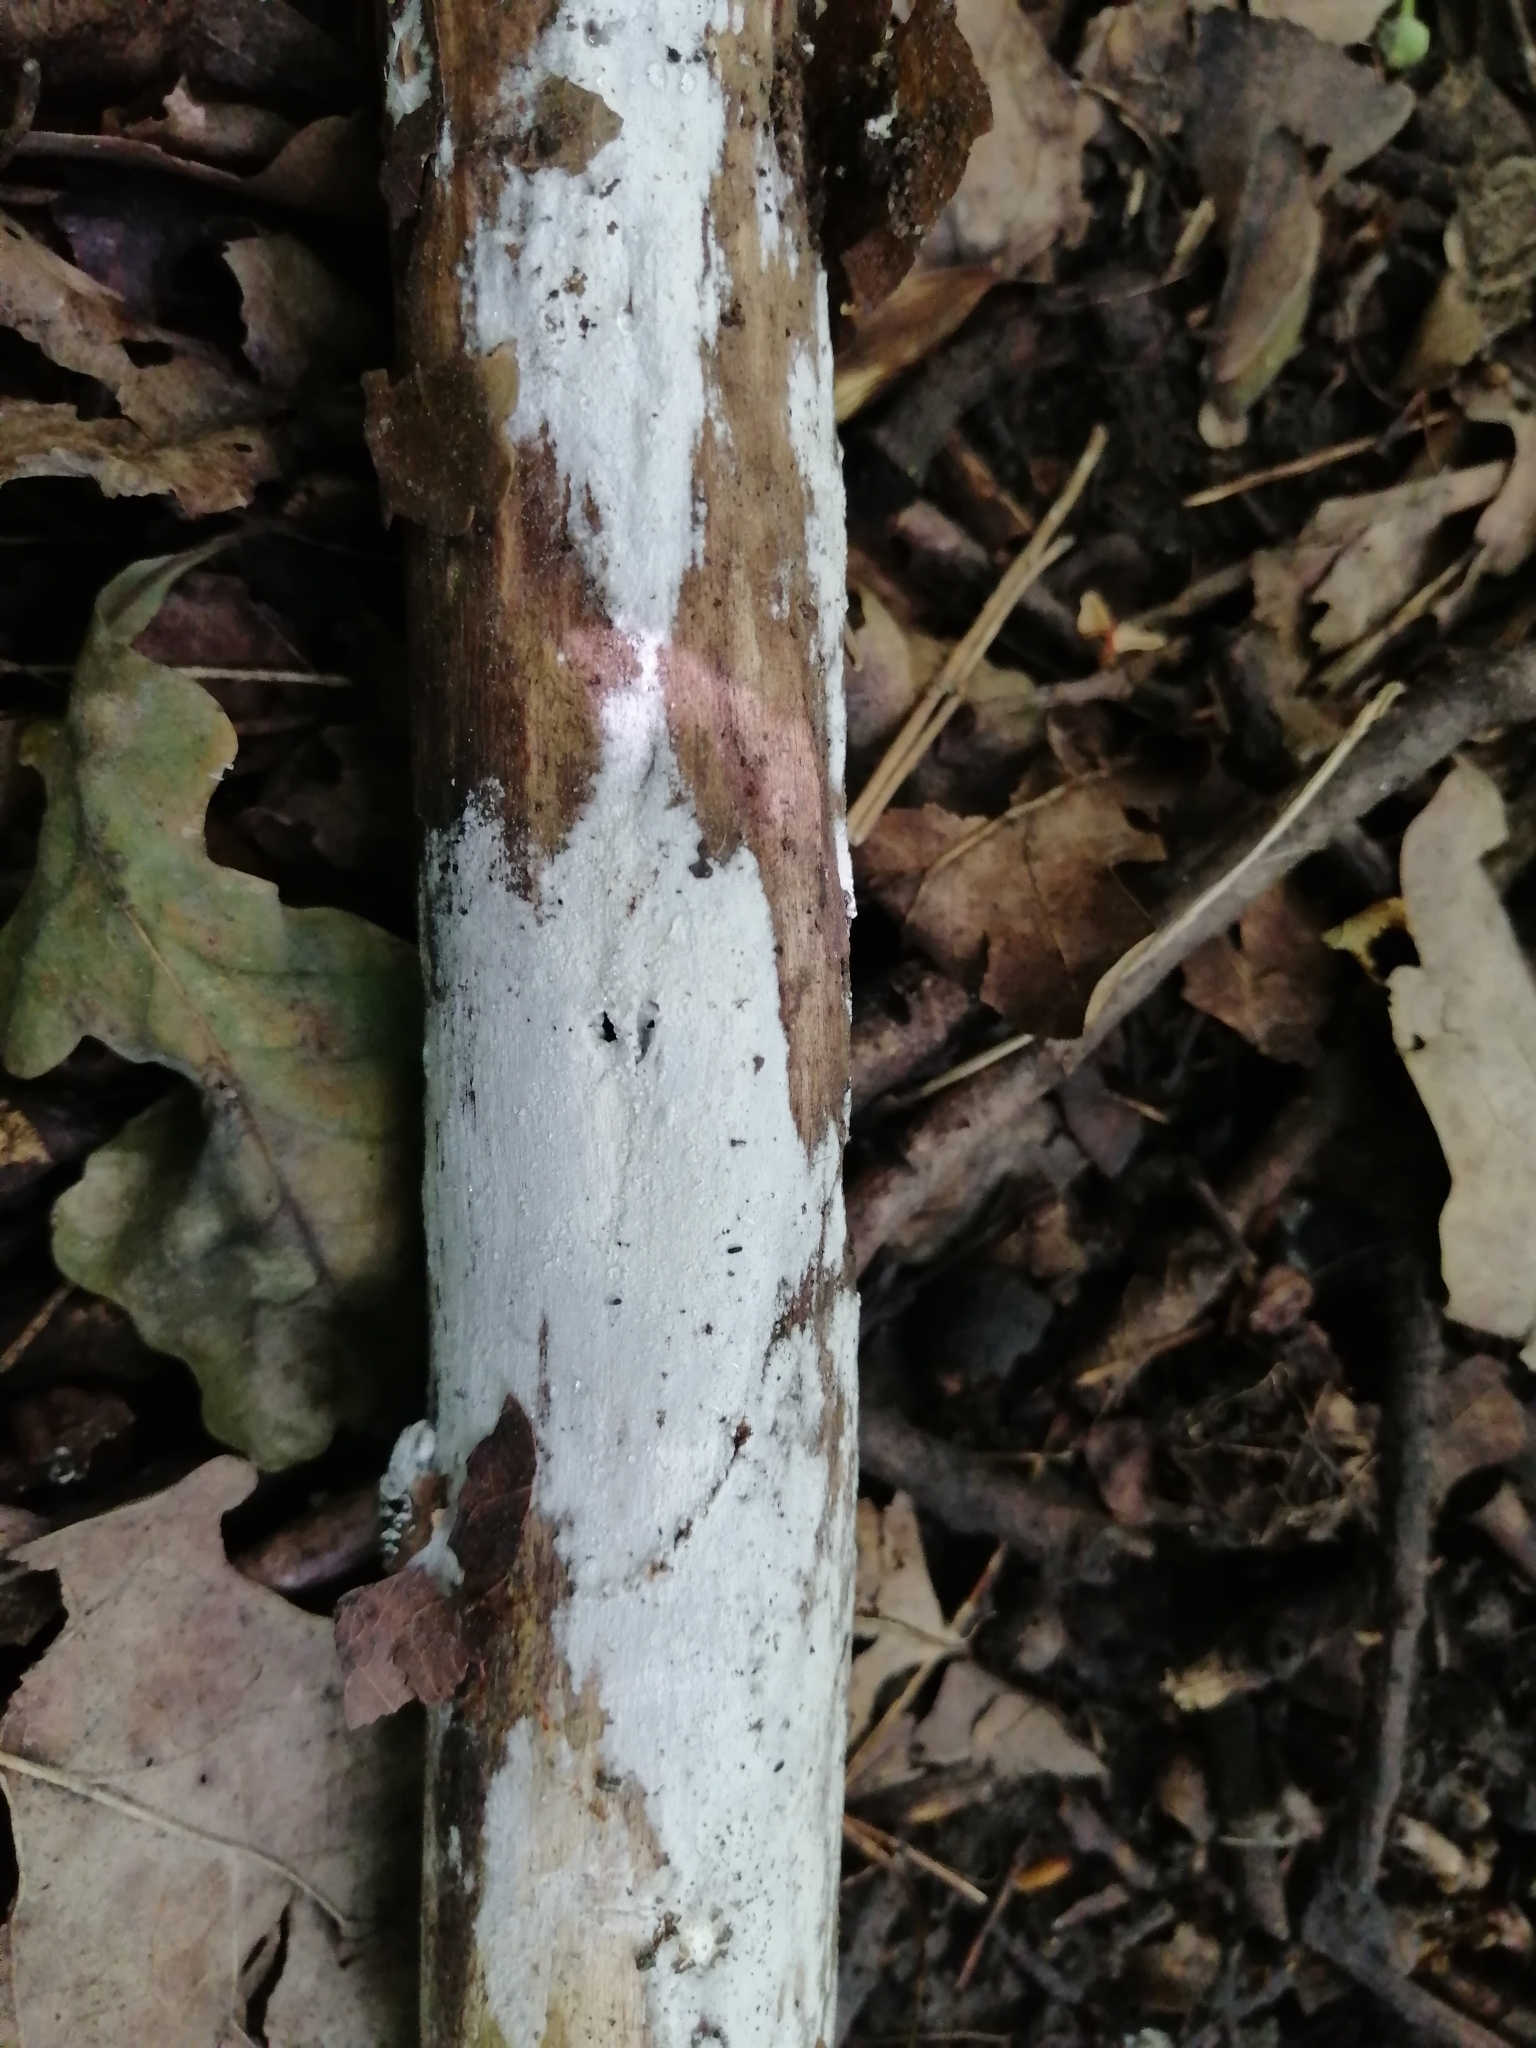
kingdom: Fungi
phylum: Basidiomycota
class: Agaricomycetes
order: Corticiales
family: Corticiaceae
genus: Lyomyces
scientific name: Lyomyces sambuci
